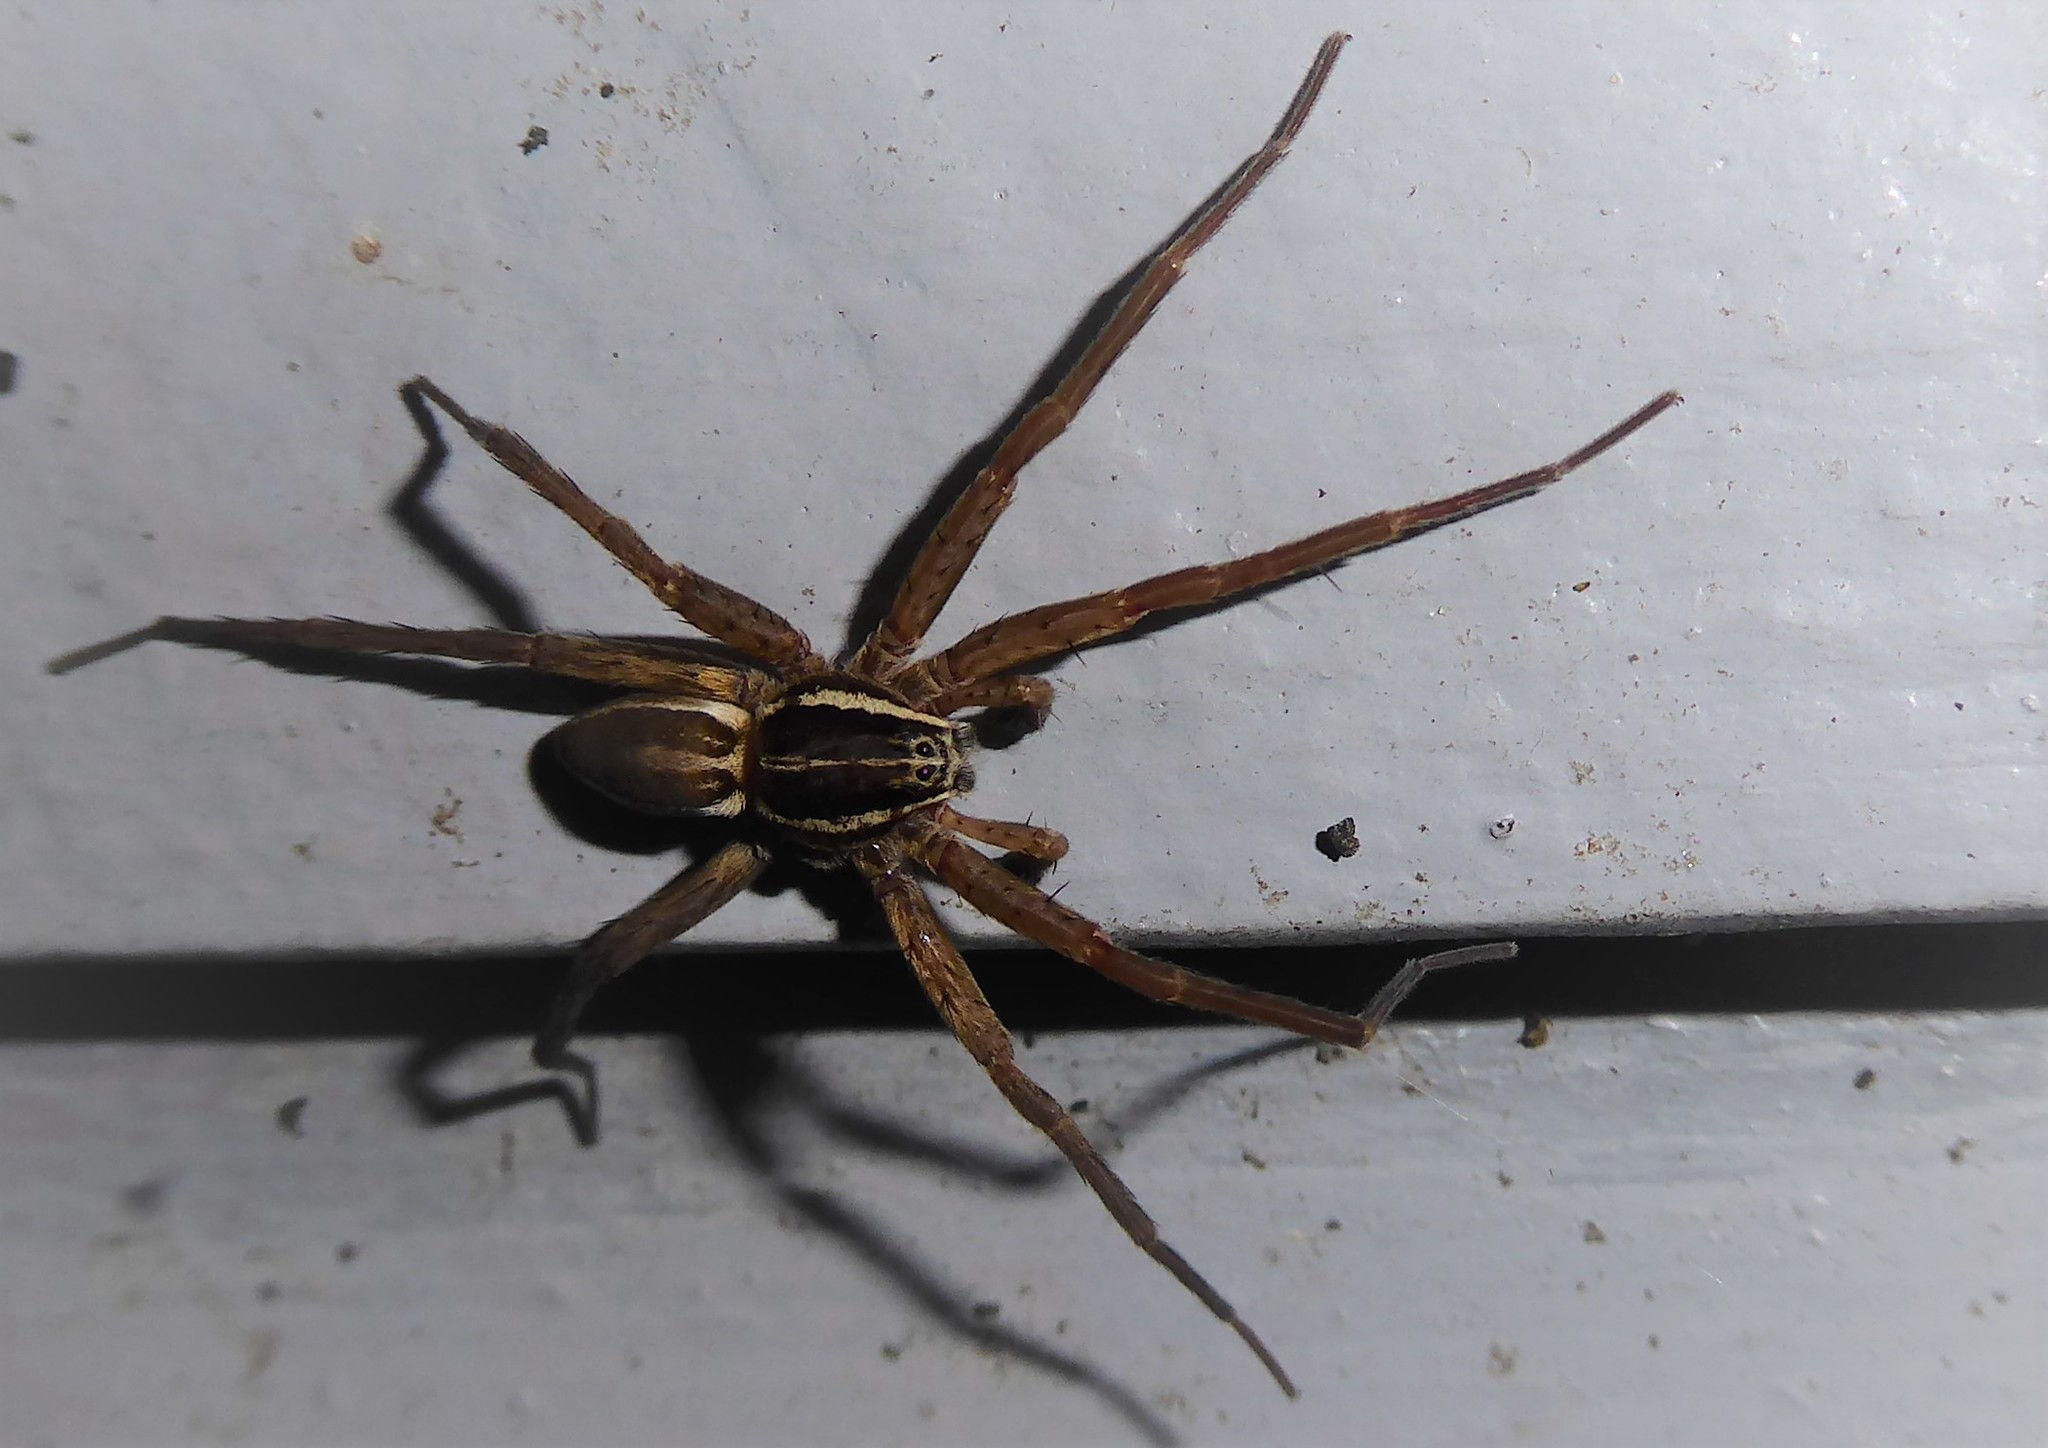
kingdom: Animalia
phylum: Arthropoda
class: Arachnida
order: Araneae
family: Pisauridae
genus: Dolomedes
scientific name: Dolomedes minor
